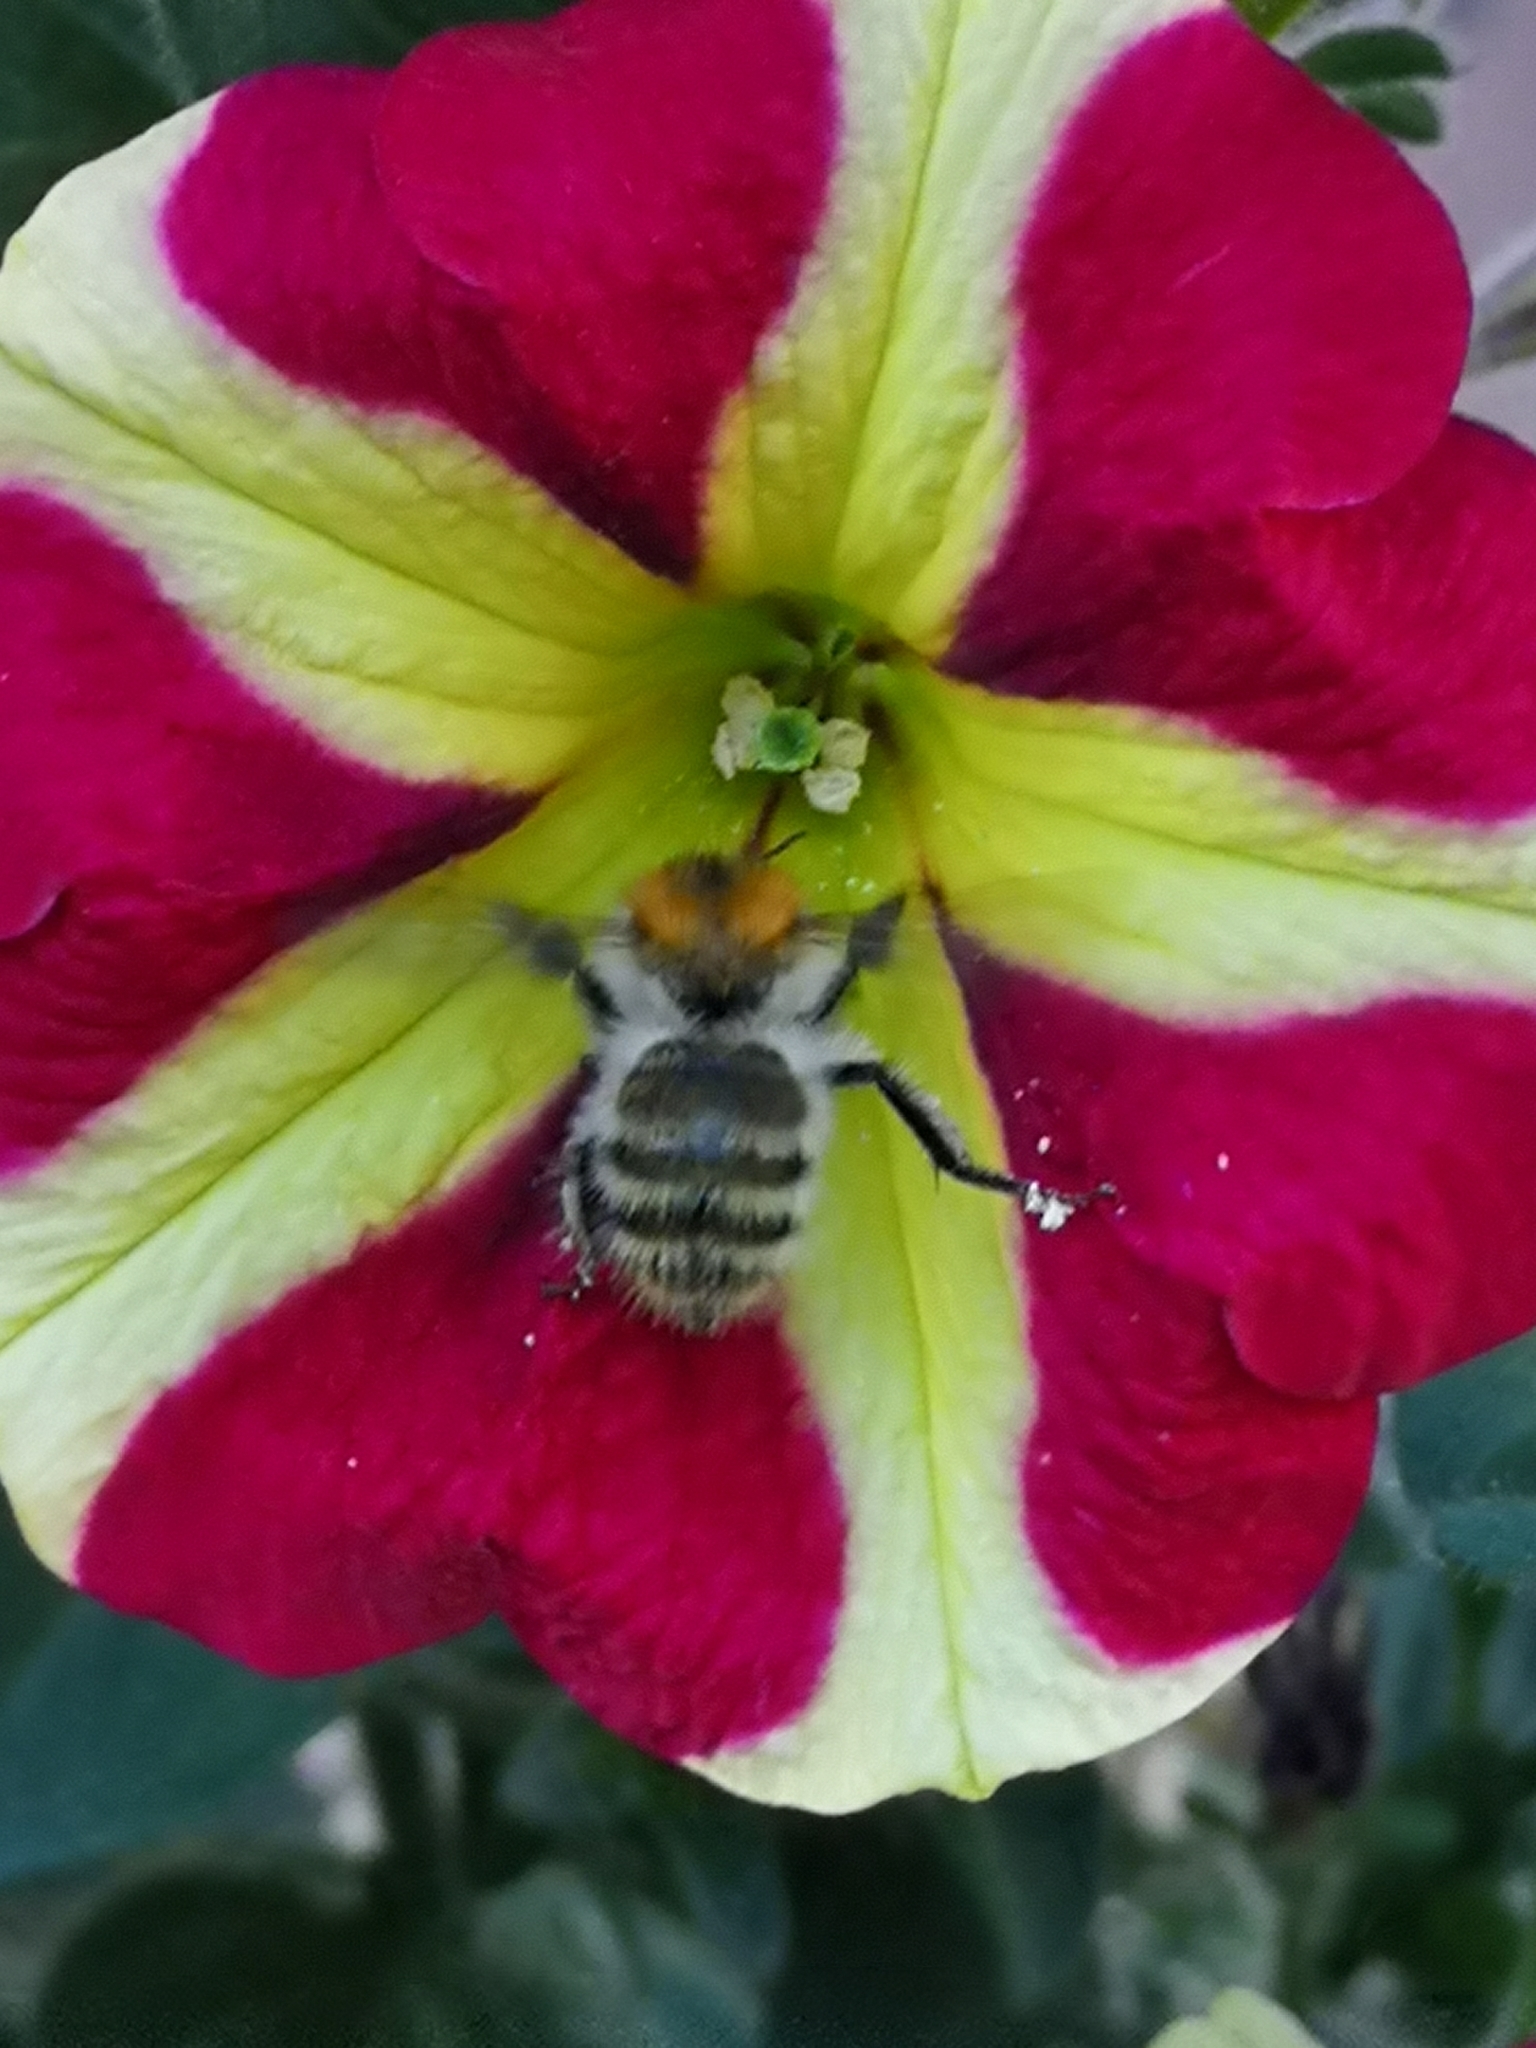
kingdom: Animalia
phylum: Arthropoda
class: Insecta
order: Hymenoptera
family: Apidae
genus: Bombus
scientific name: Bombus pascuorum
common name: Common carder bee
